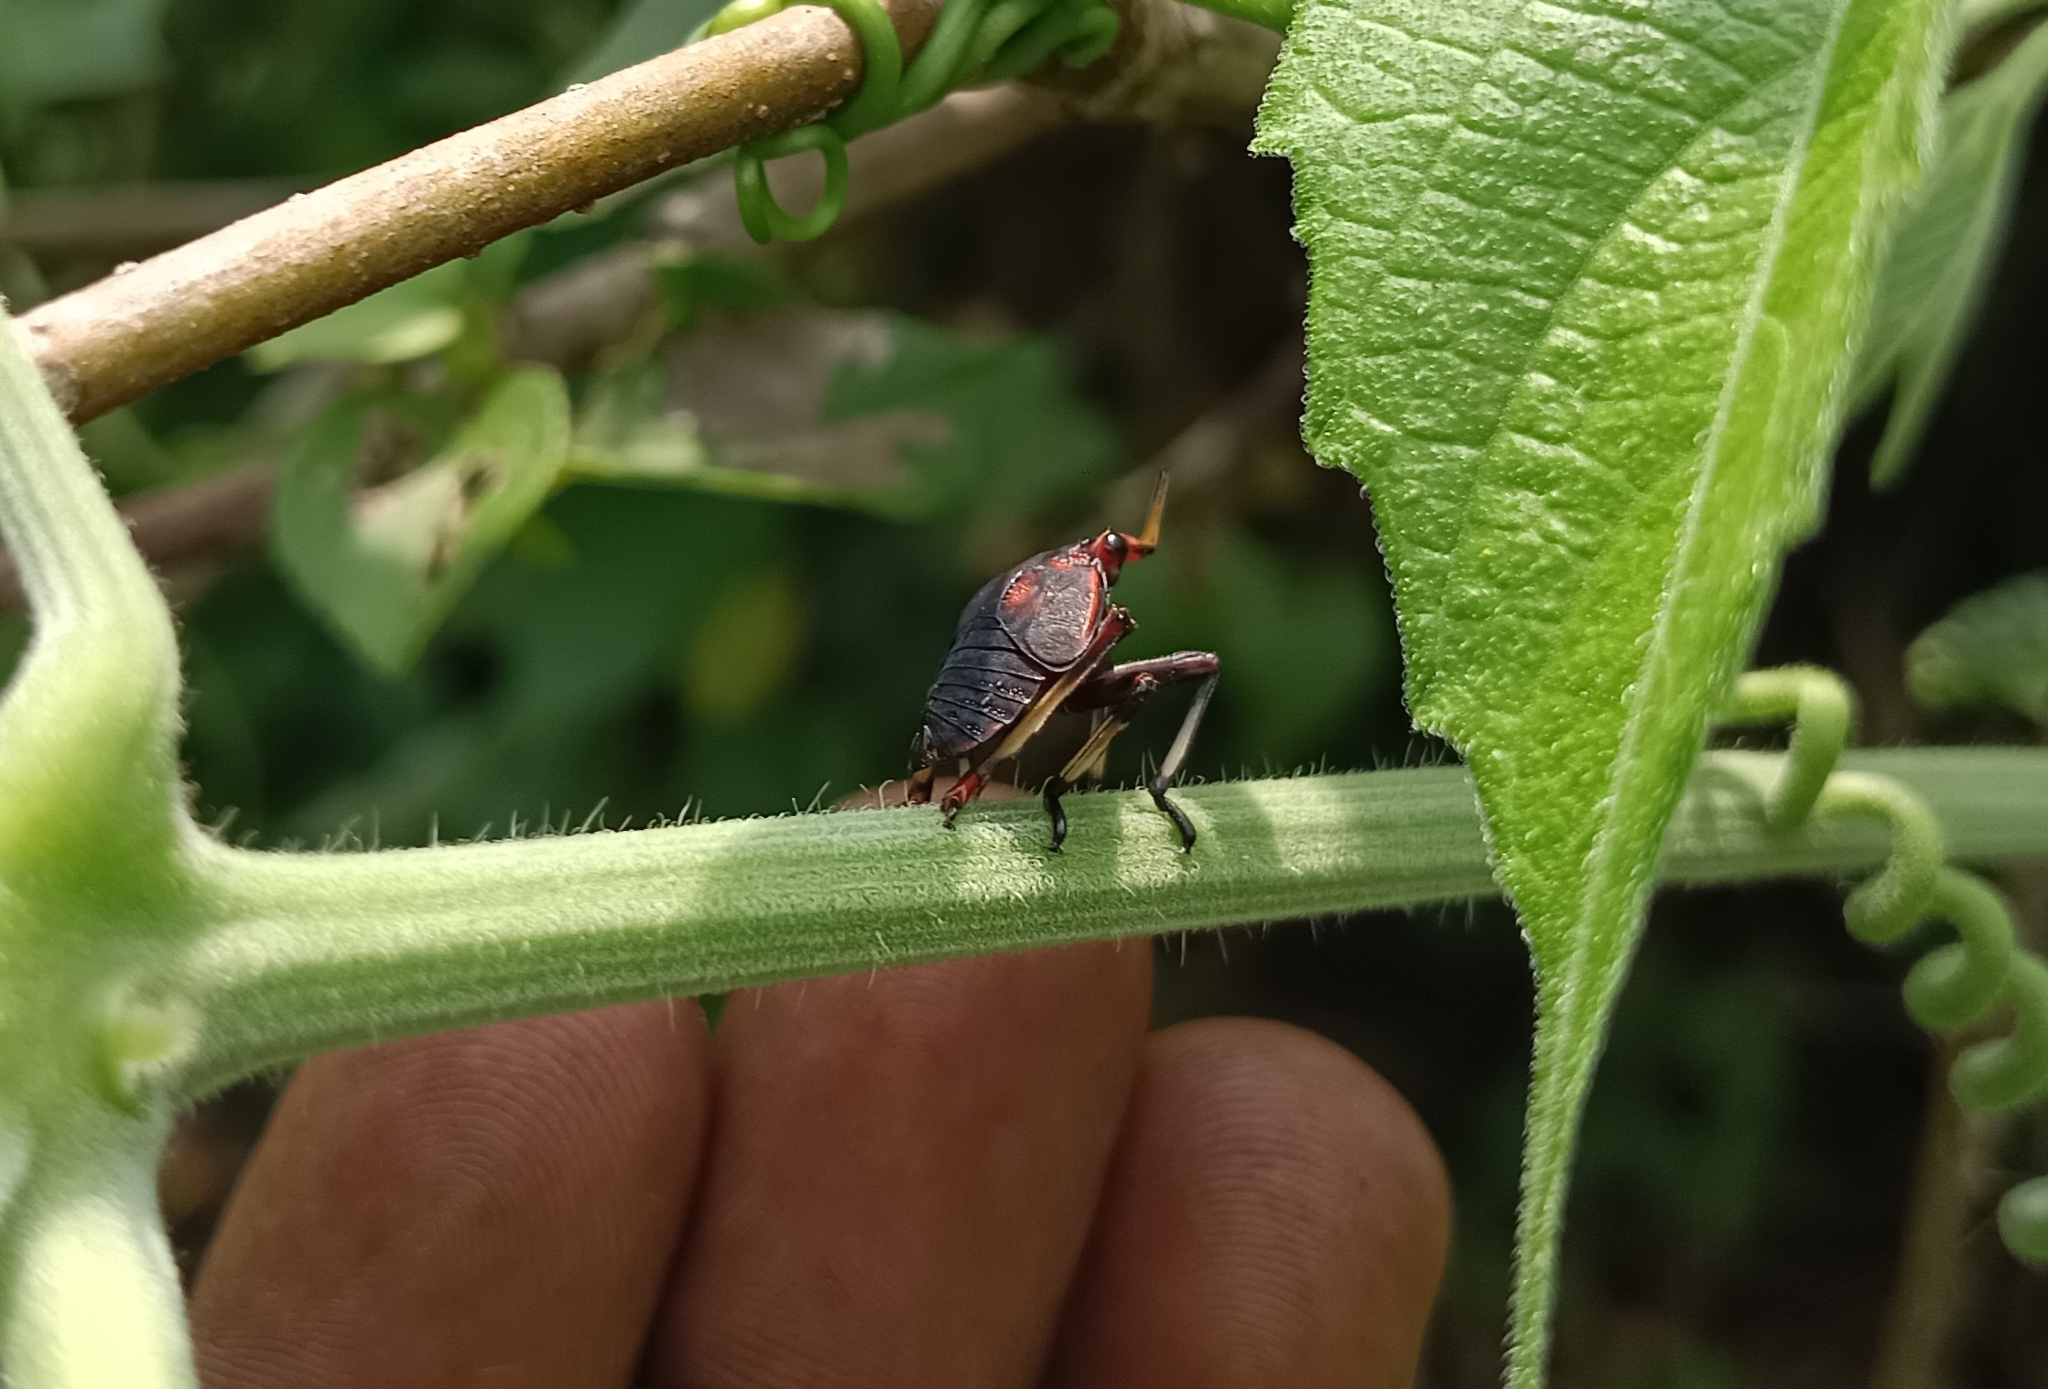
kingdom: Animalia
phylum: Arthropoda
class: Insecta
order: Hemiptera
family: Fulgoridae
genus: Kalidasa
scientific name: Kalidasa lanata
